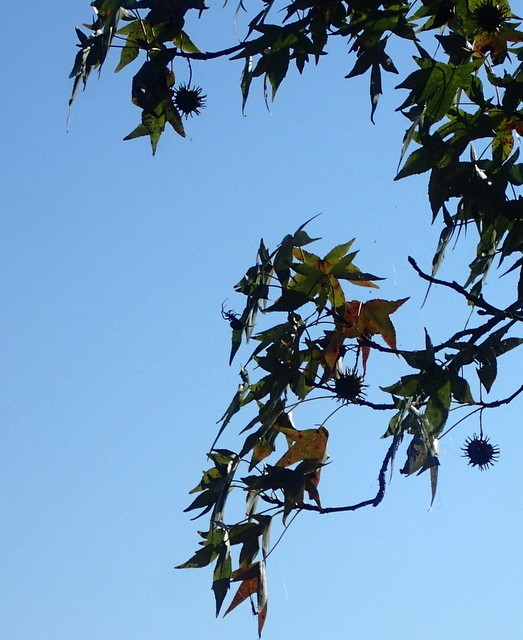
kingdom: Plantae
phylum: Tracheophyta
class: Magnoliopsida
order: Saxifragales
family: Altingiaceae
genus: Liquidambar
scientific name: Liquidambar styraciflua
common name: Sweet gum
